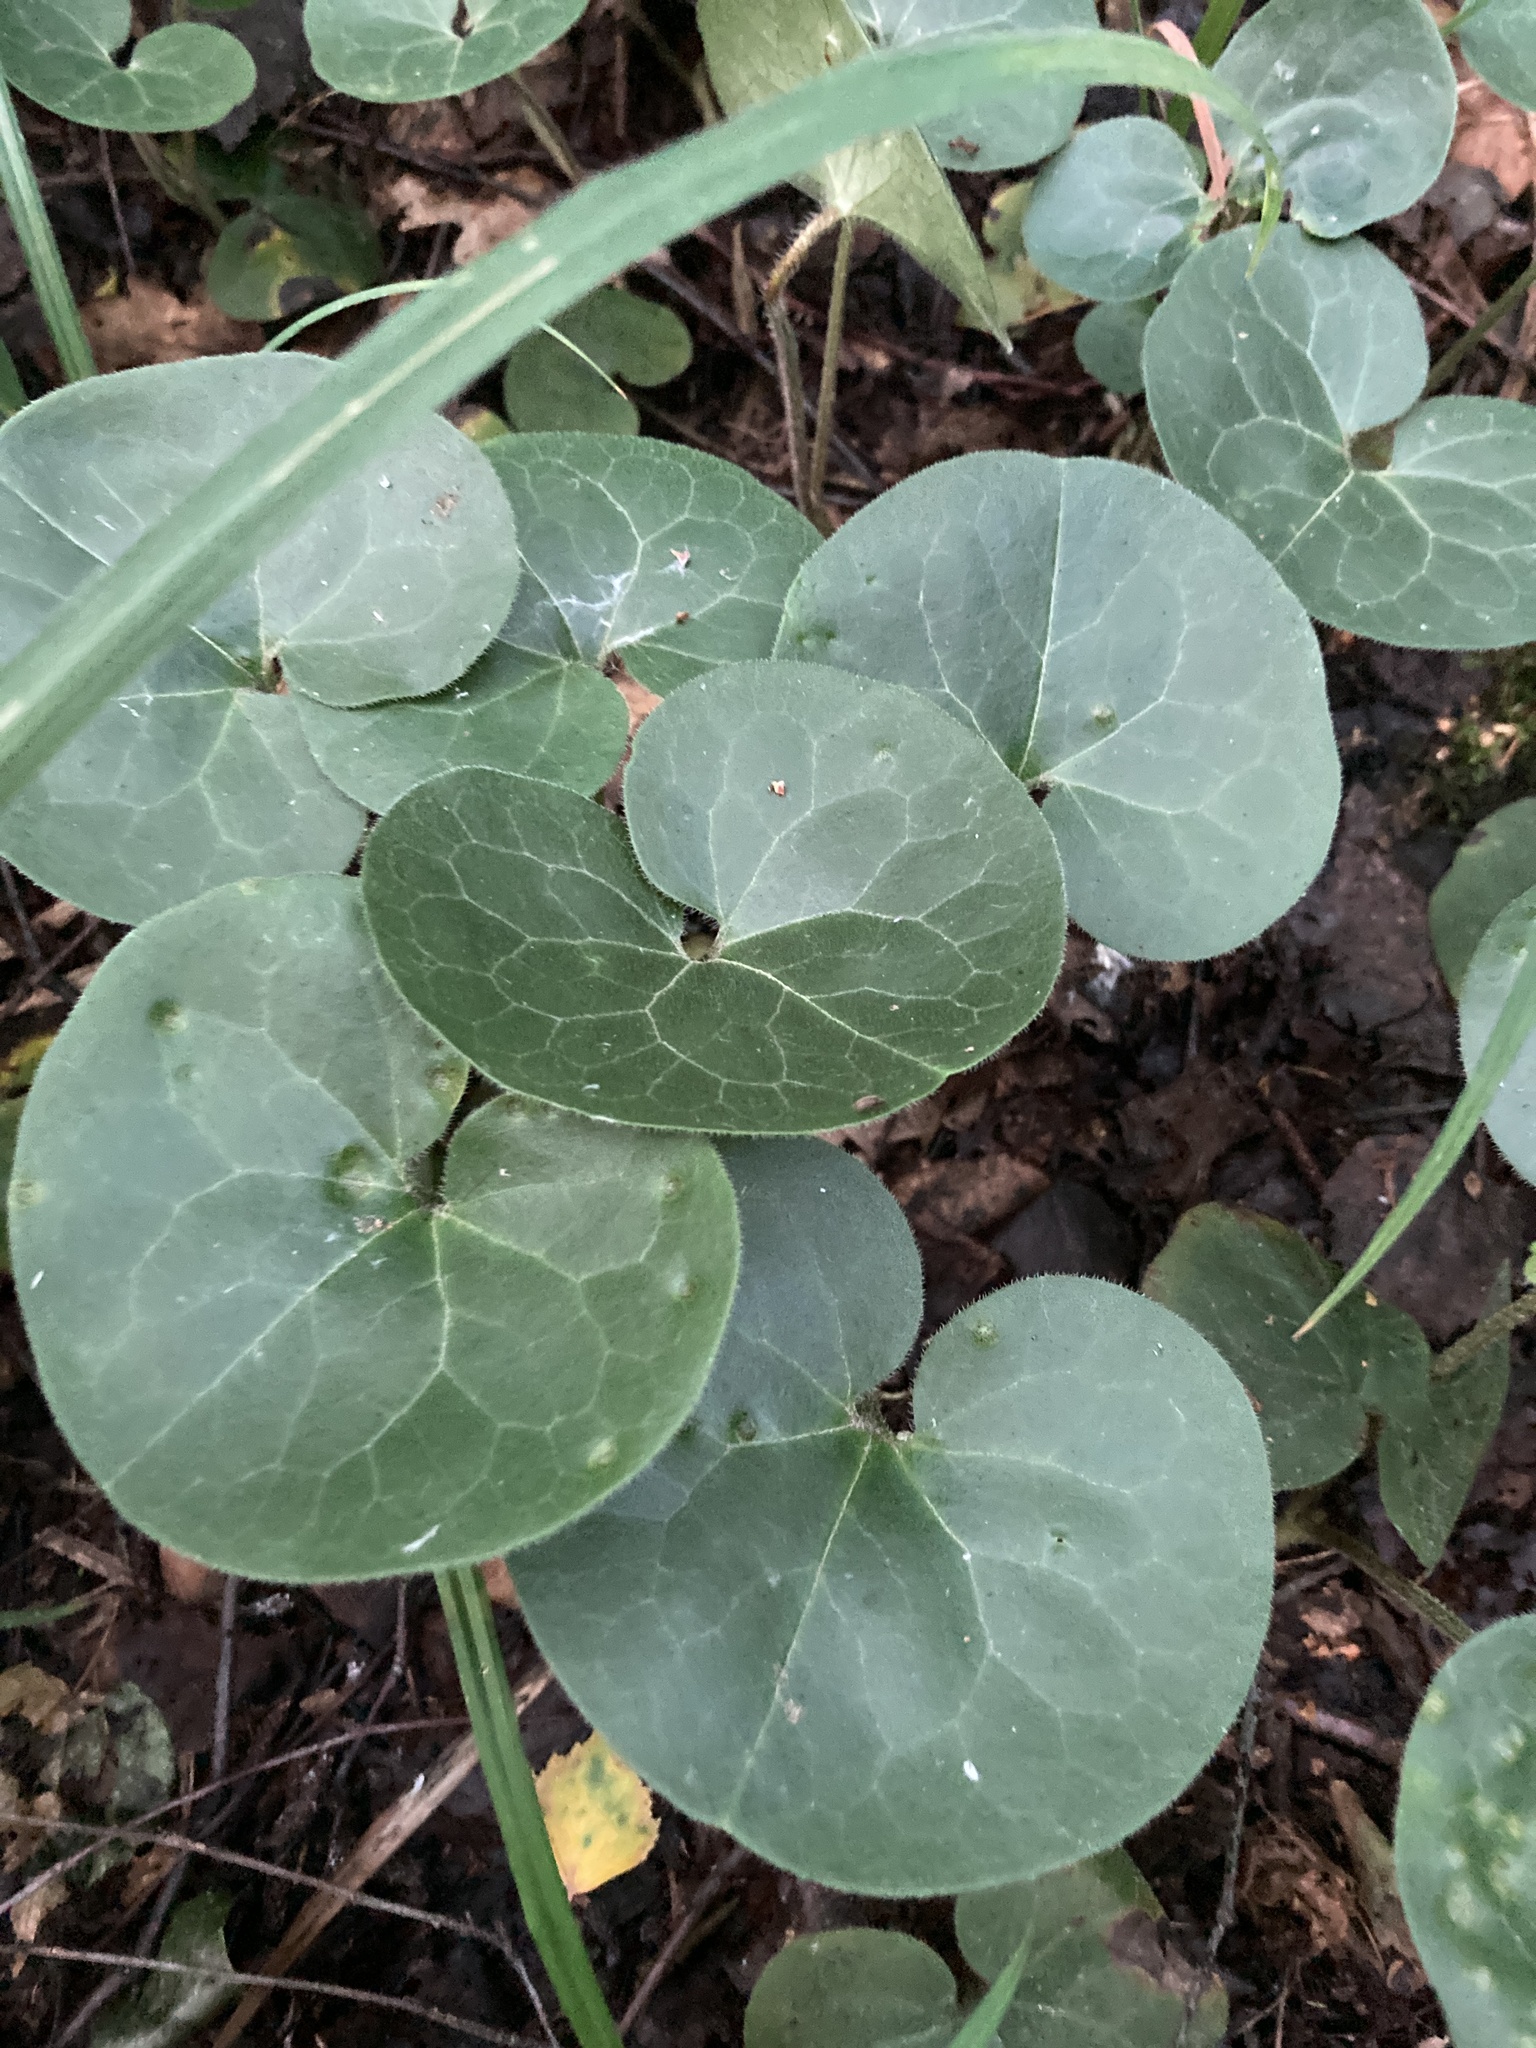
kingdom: Plantae
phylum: Tracheophyta
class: Magnoliopsida
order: Piperales
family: Aristolochiaceae
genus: Asarum
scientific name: Asarum europaeum
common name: Asarabacca
